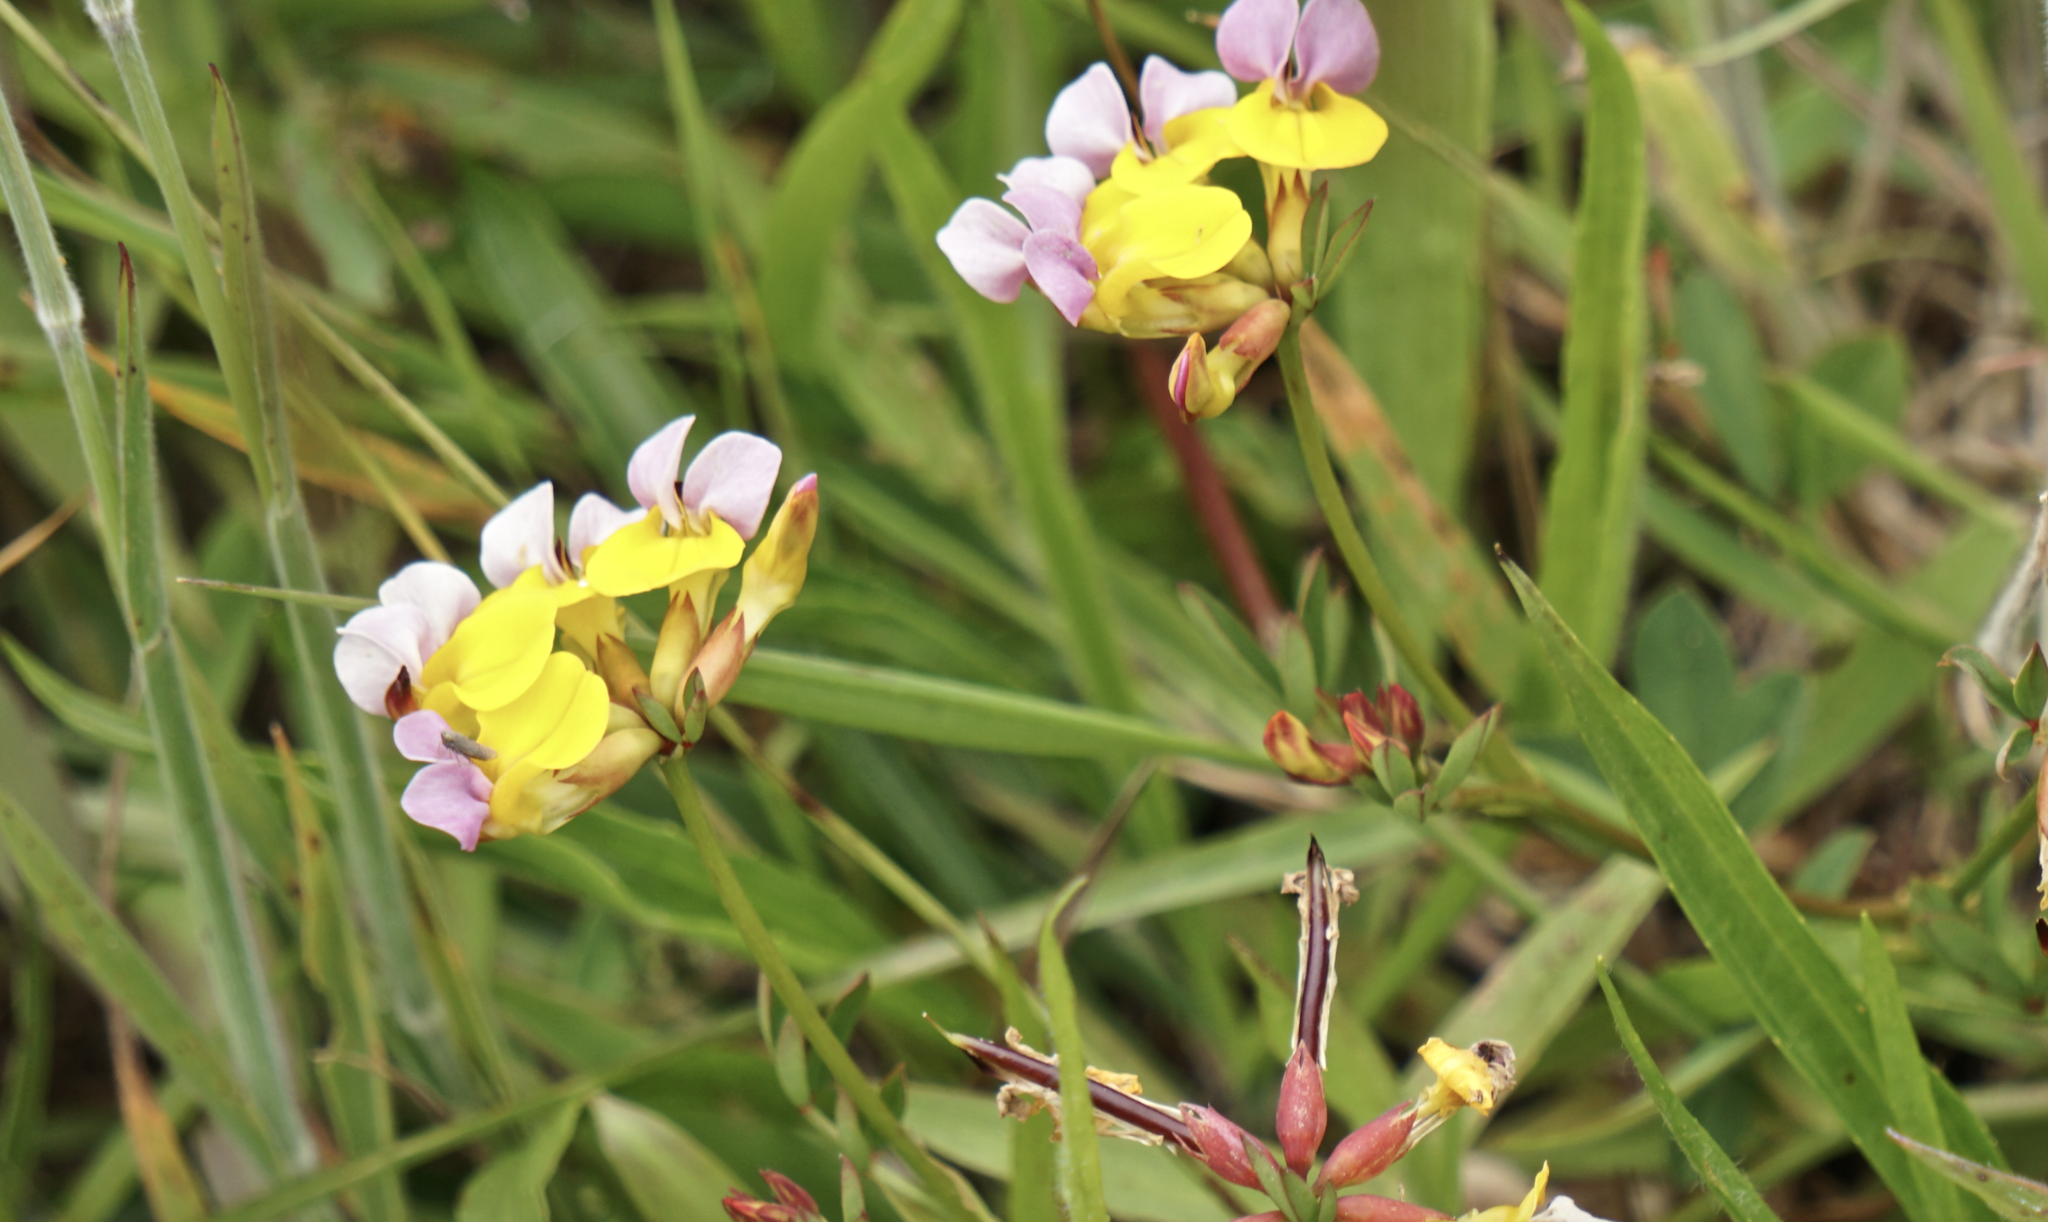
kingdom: Plantae
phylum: Tracheophyta
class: Magnoliopsida
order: Fabales
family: Fabaceae
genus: Hosackia
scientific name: Hosackia gracilis
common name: Seaside bird's-foot lotus
